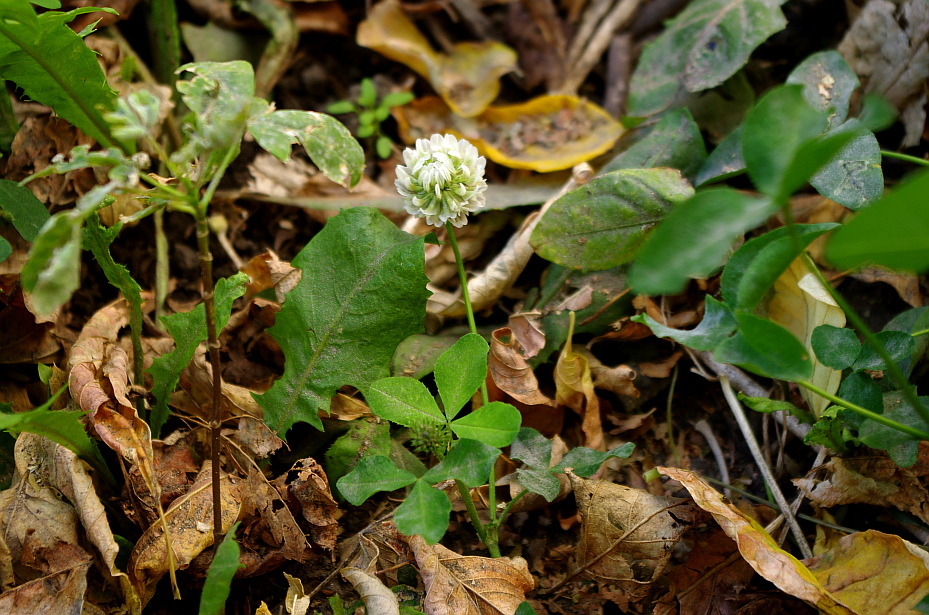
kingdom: Plantae
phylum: Tracheophyta
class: Magnoliopsida
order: Fabales
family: Fabaceae
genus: Trifolium
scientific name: Trifolium repens
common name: White clover
